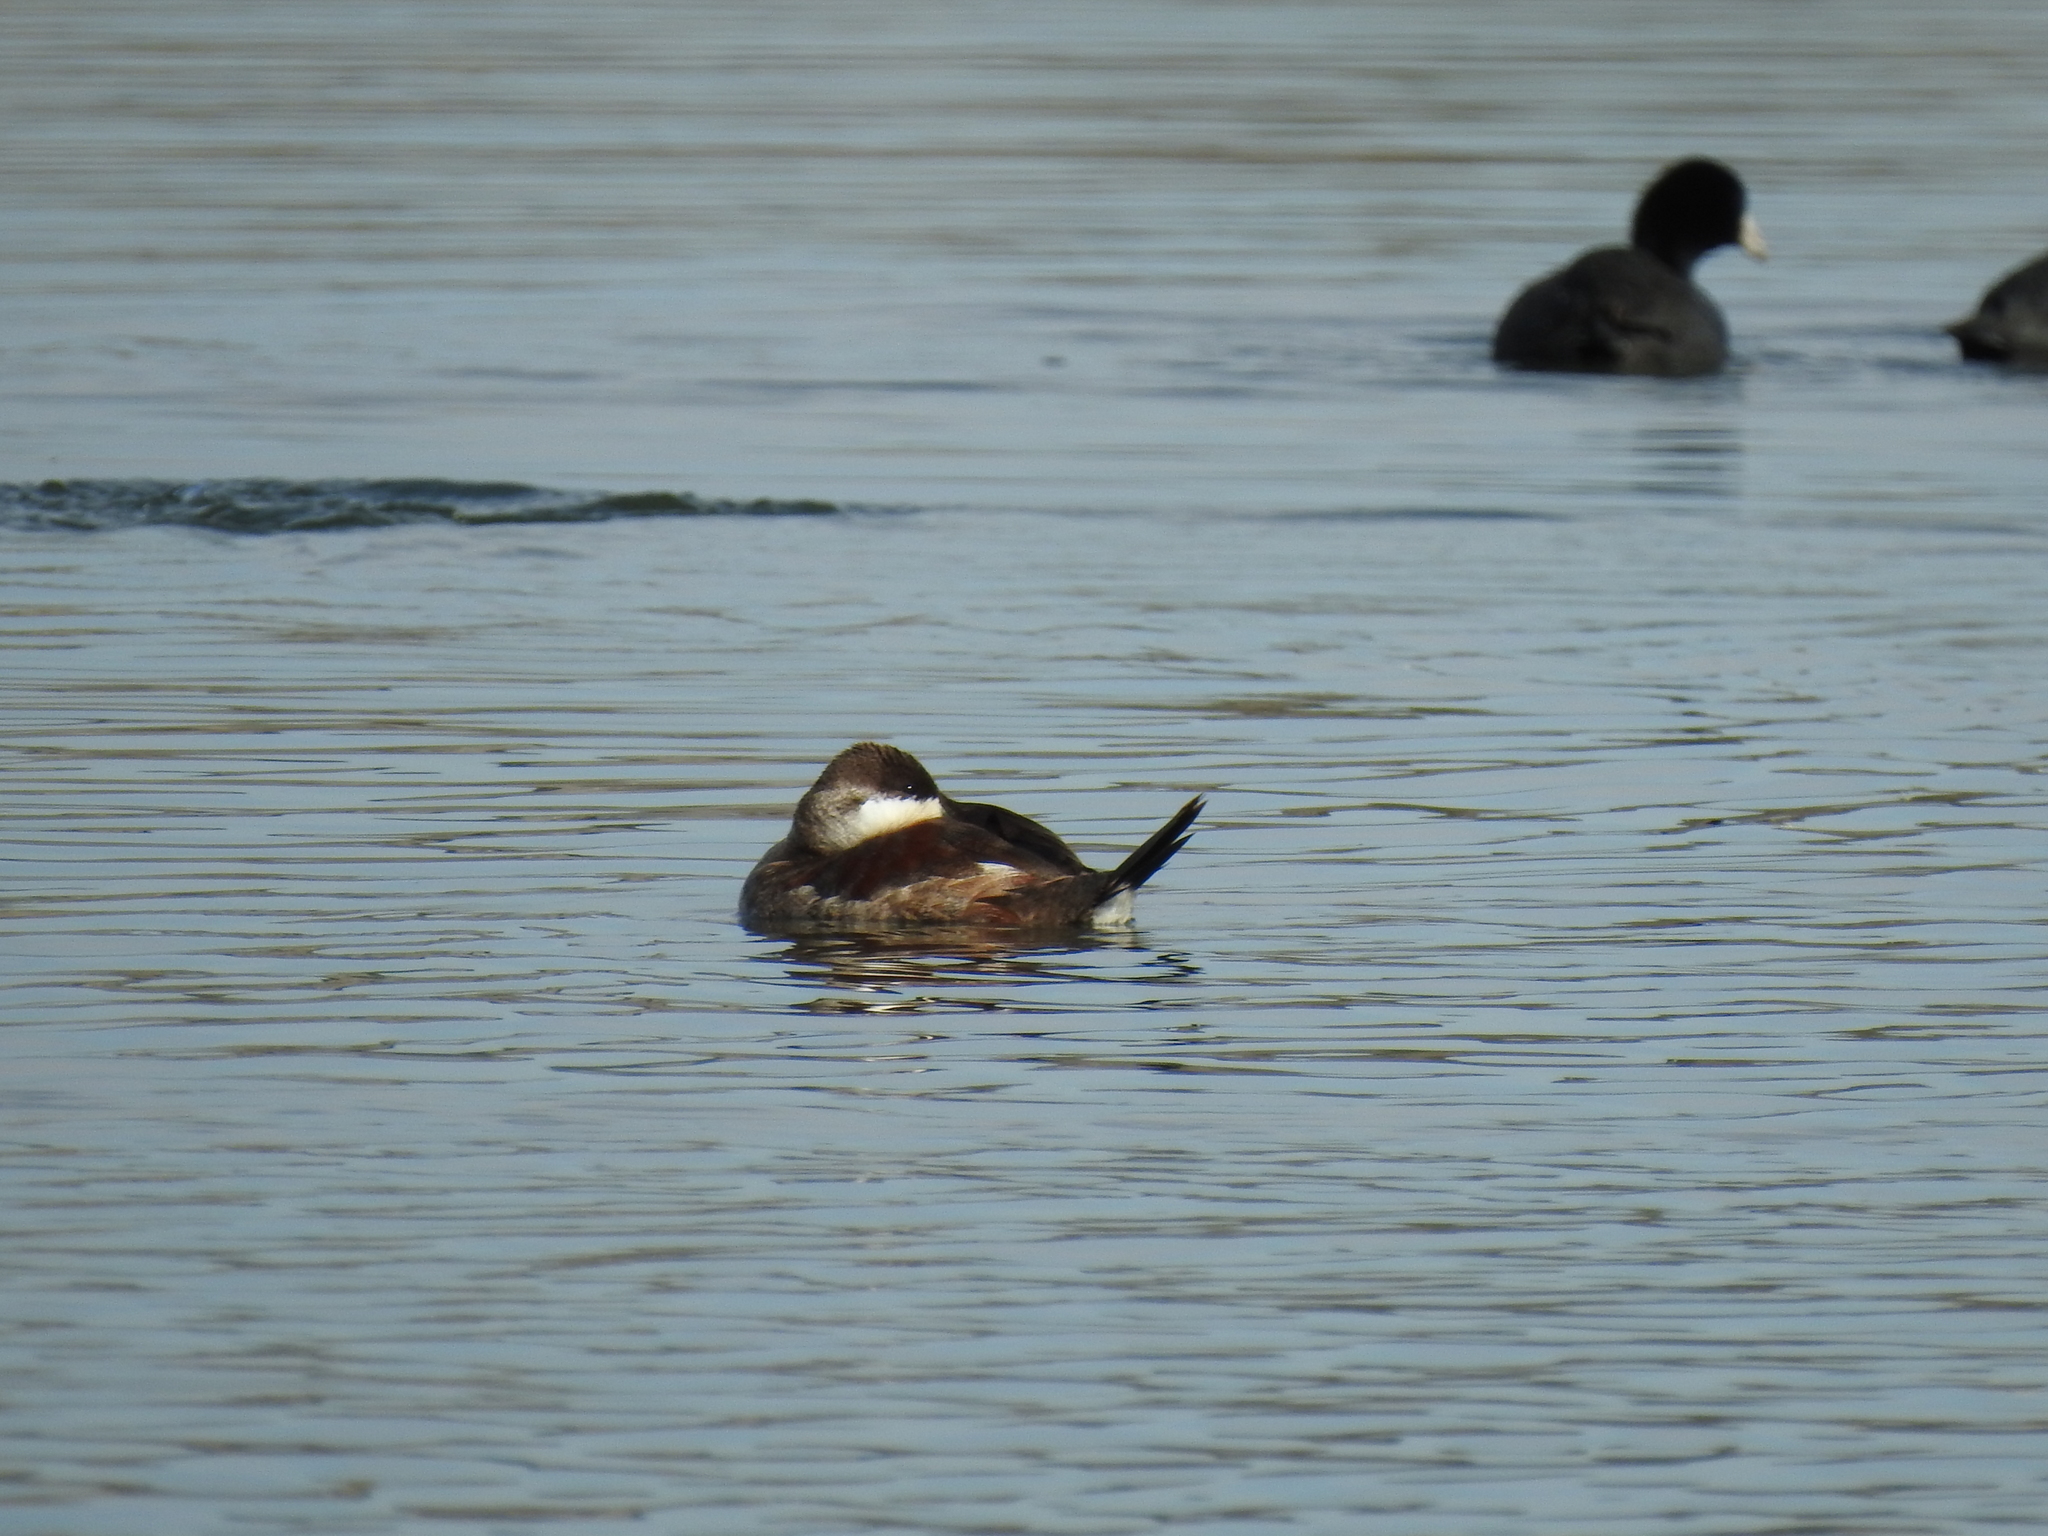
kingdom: Animalia
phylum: Chordata
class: Aves
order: Anseriformes
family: Anatidae
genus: Oxyura
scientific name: Oxyura jamaicensis
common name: Ruddy duck
